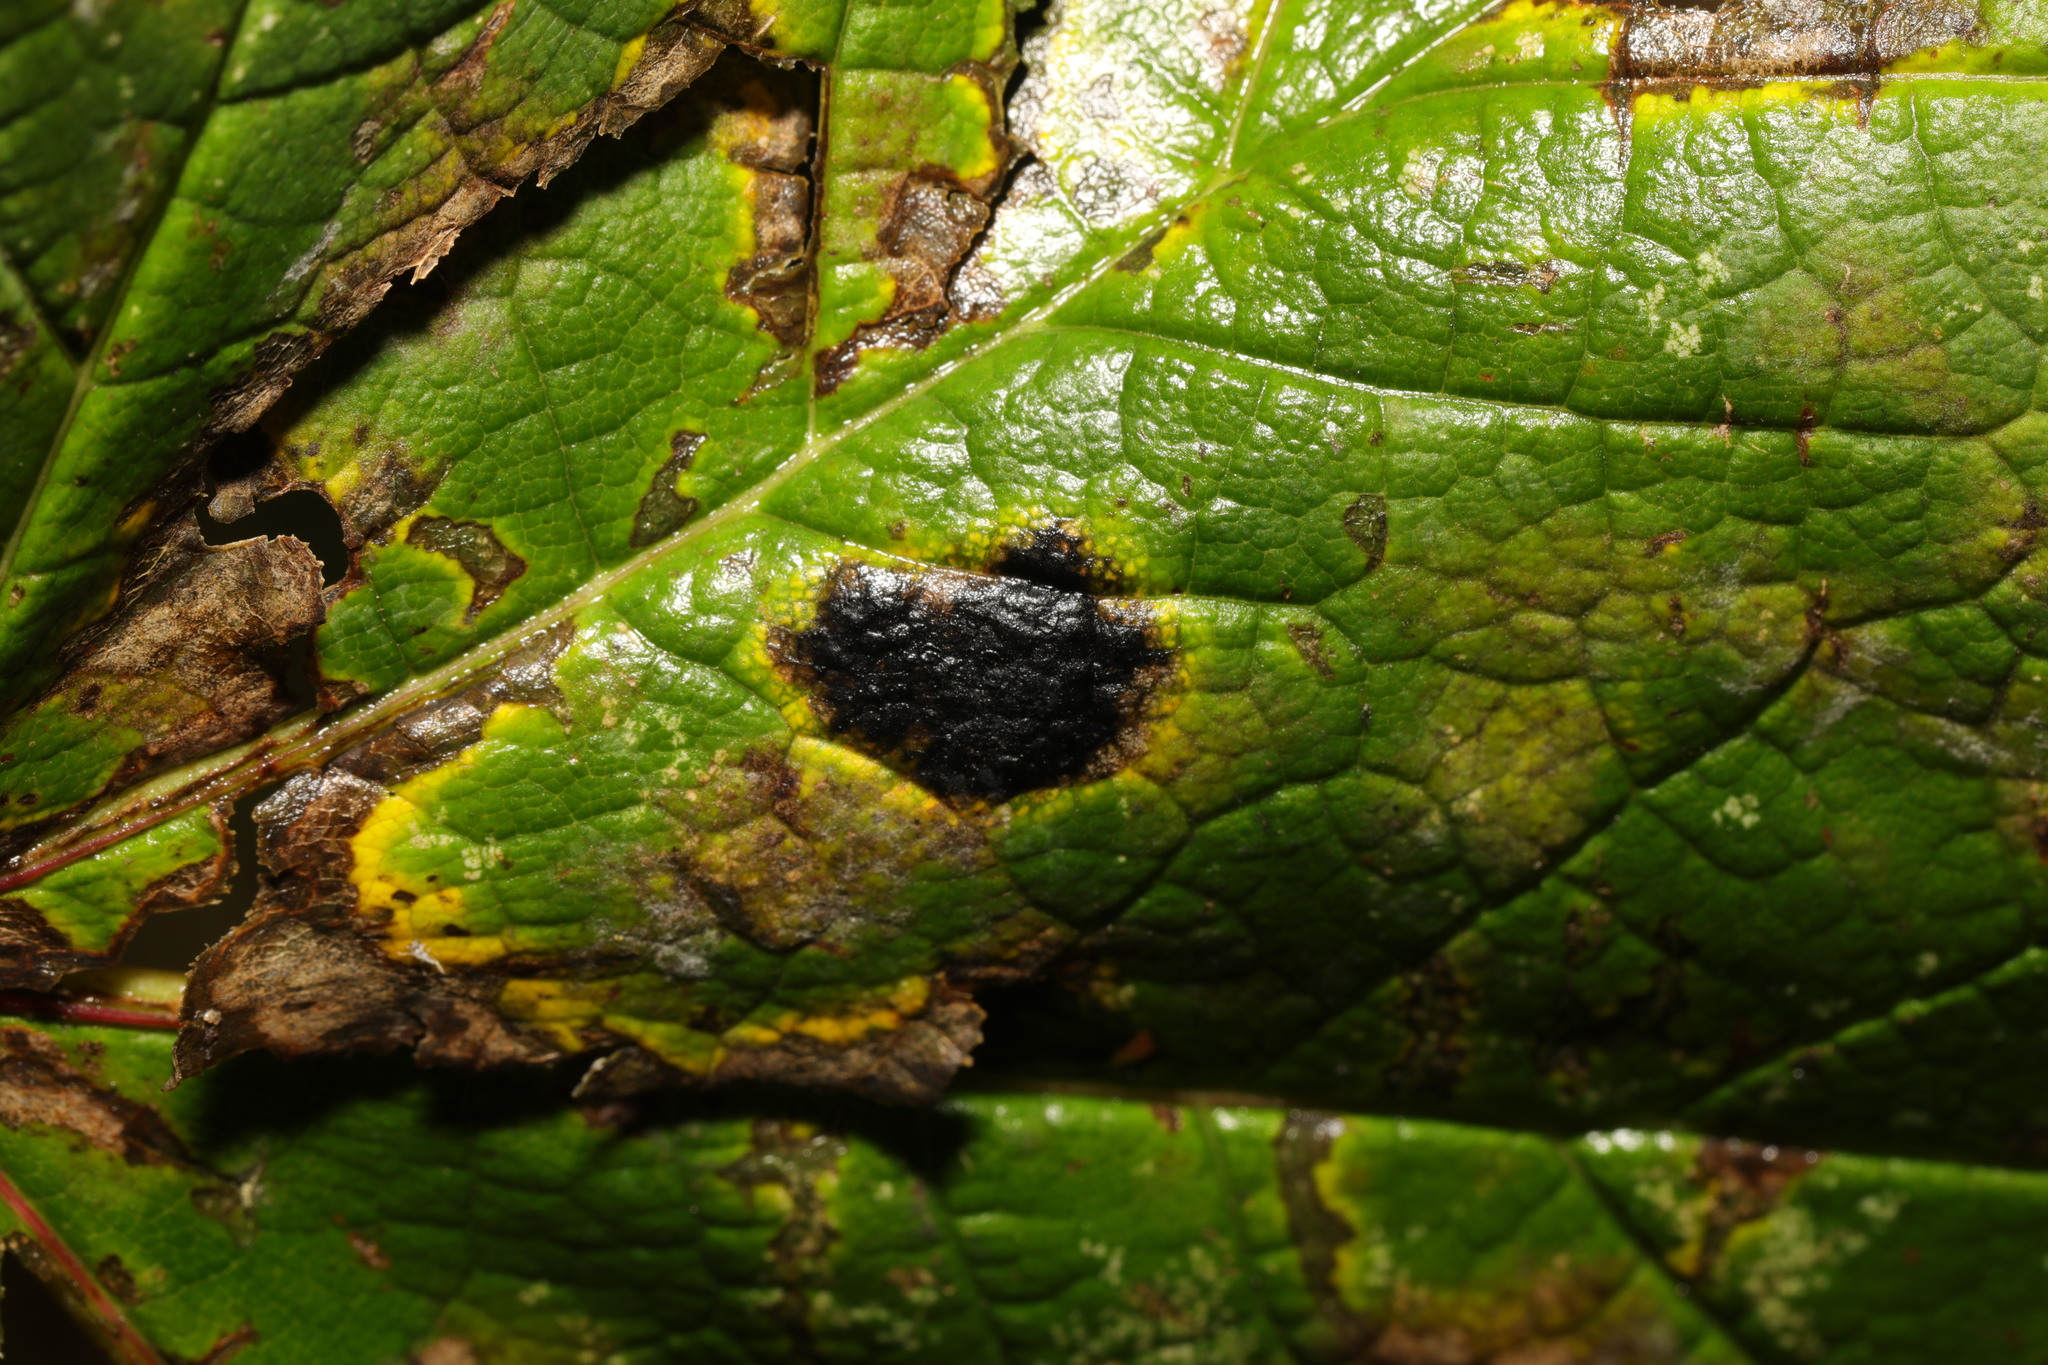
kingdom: Fungi
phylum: Ascomycota
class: Leotiomycetes
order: Rhytismatales
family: Rhytismataceae
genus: Rhytisma
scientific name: Rhytisma acerinum
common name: European tar spot
